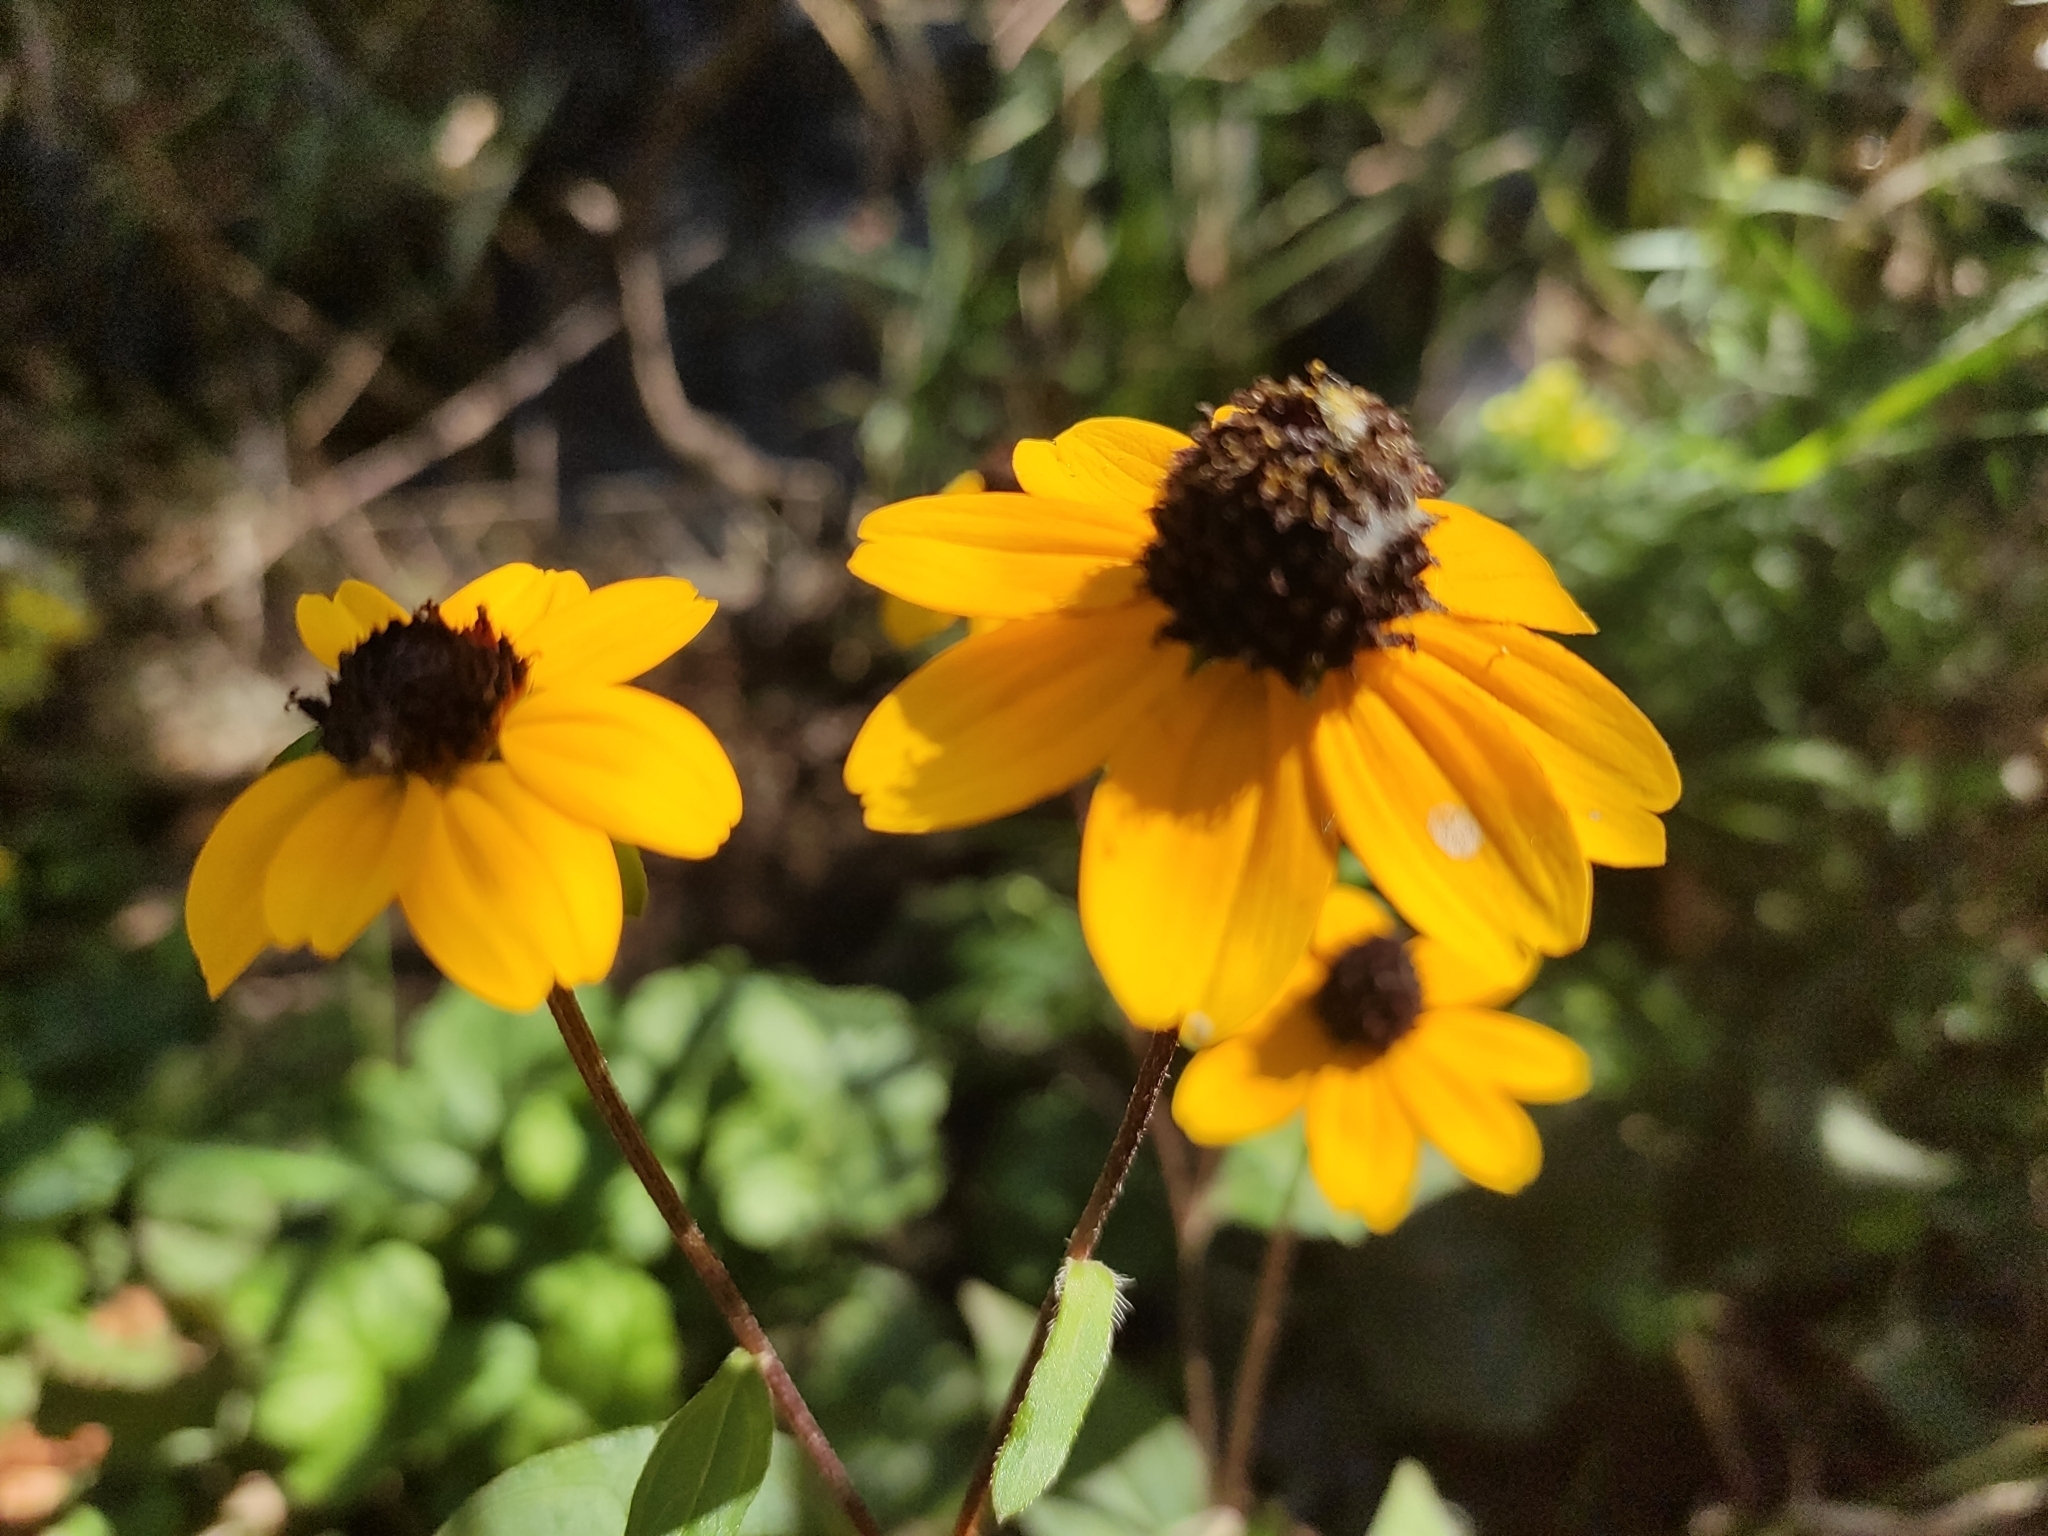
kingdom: Plantae
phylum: Tracheophyta
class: Magnoliopsida
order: Asterales
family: Asteraceae
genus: Rudbeckia
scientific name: Rudbeckia triloba
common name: Thin-leaved coneflower
